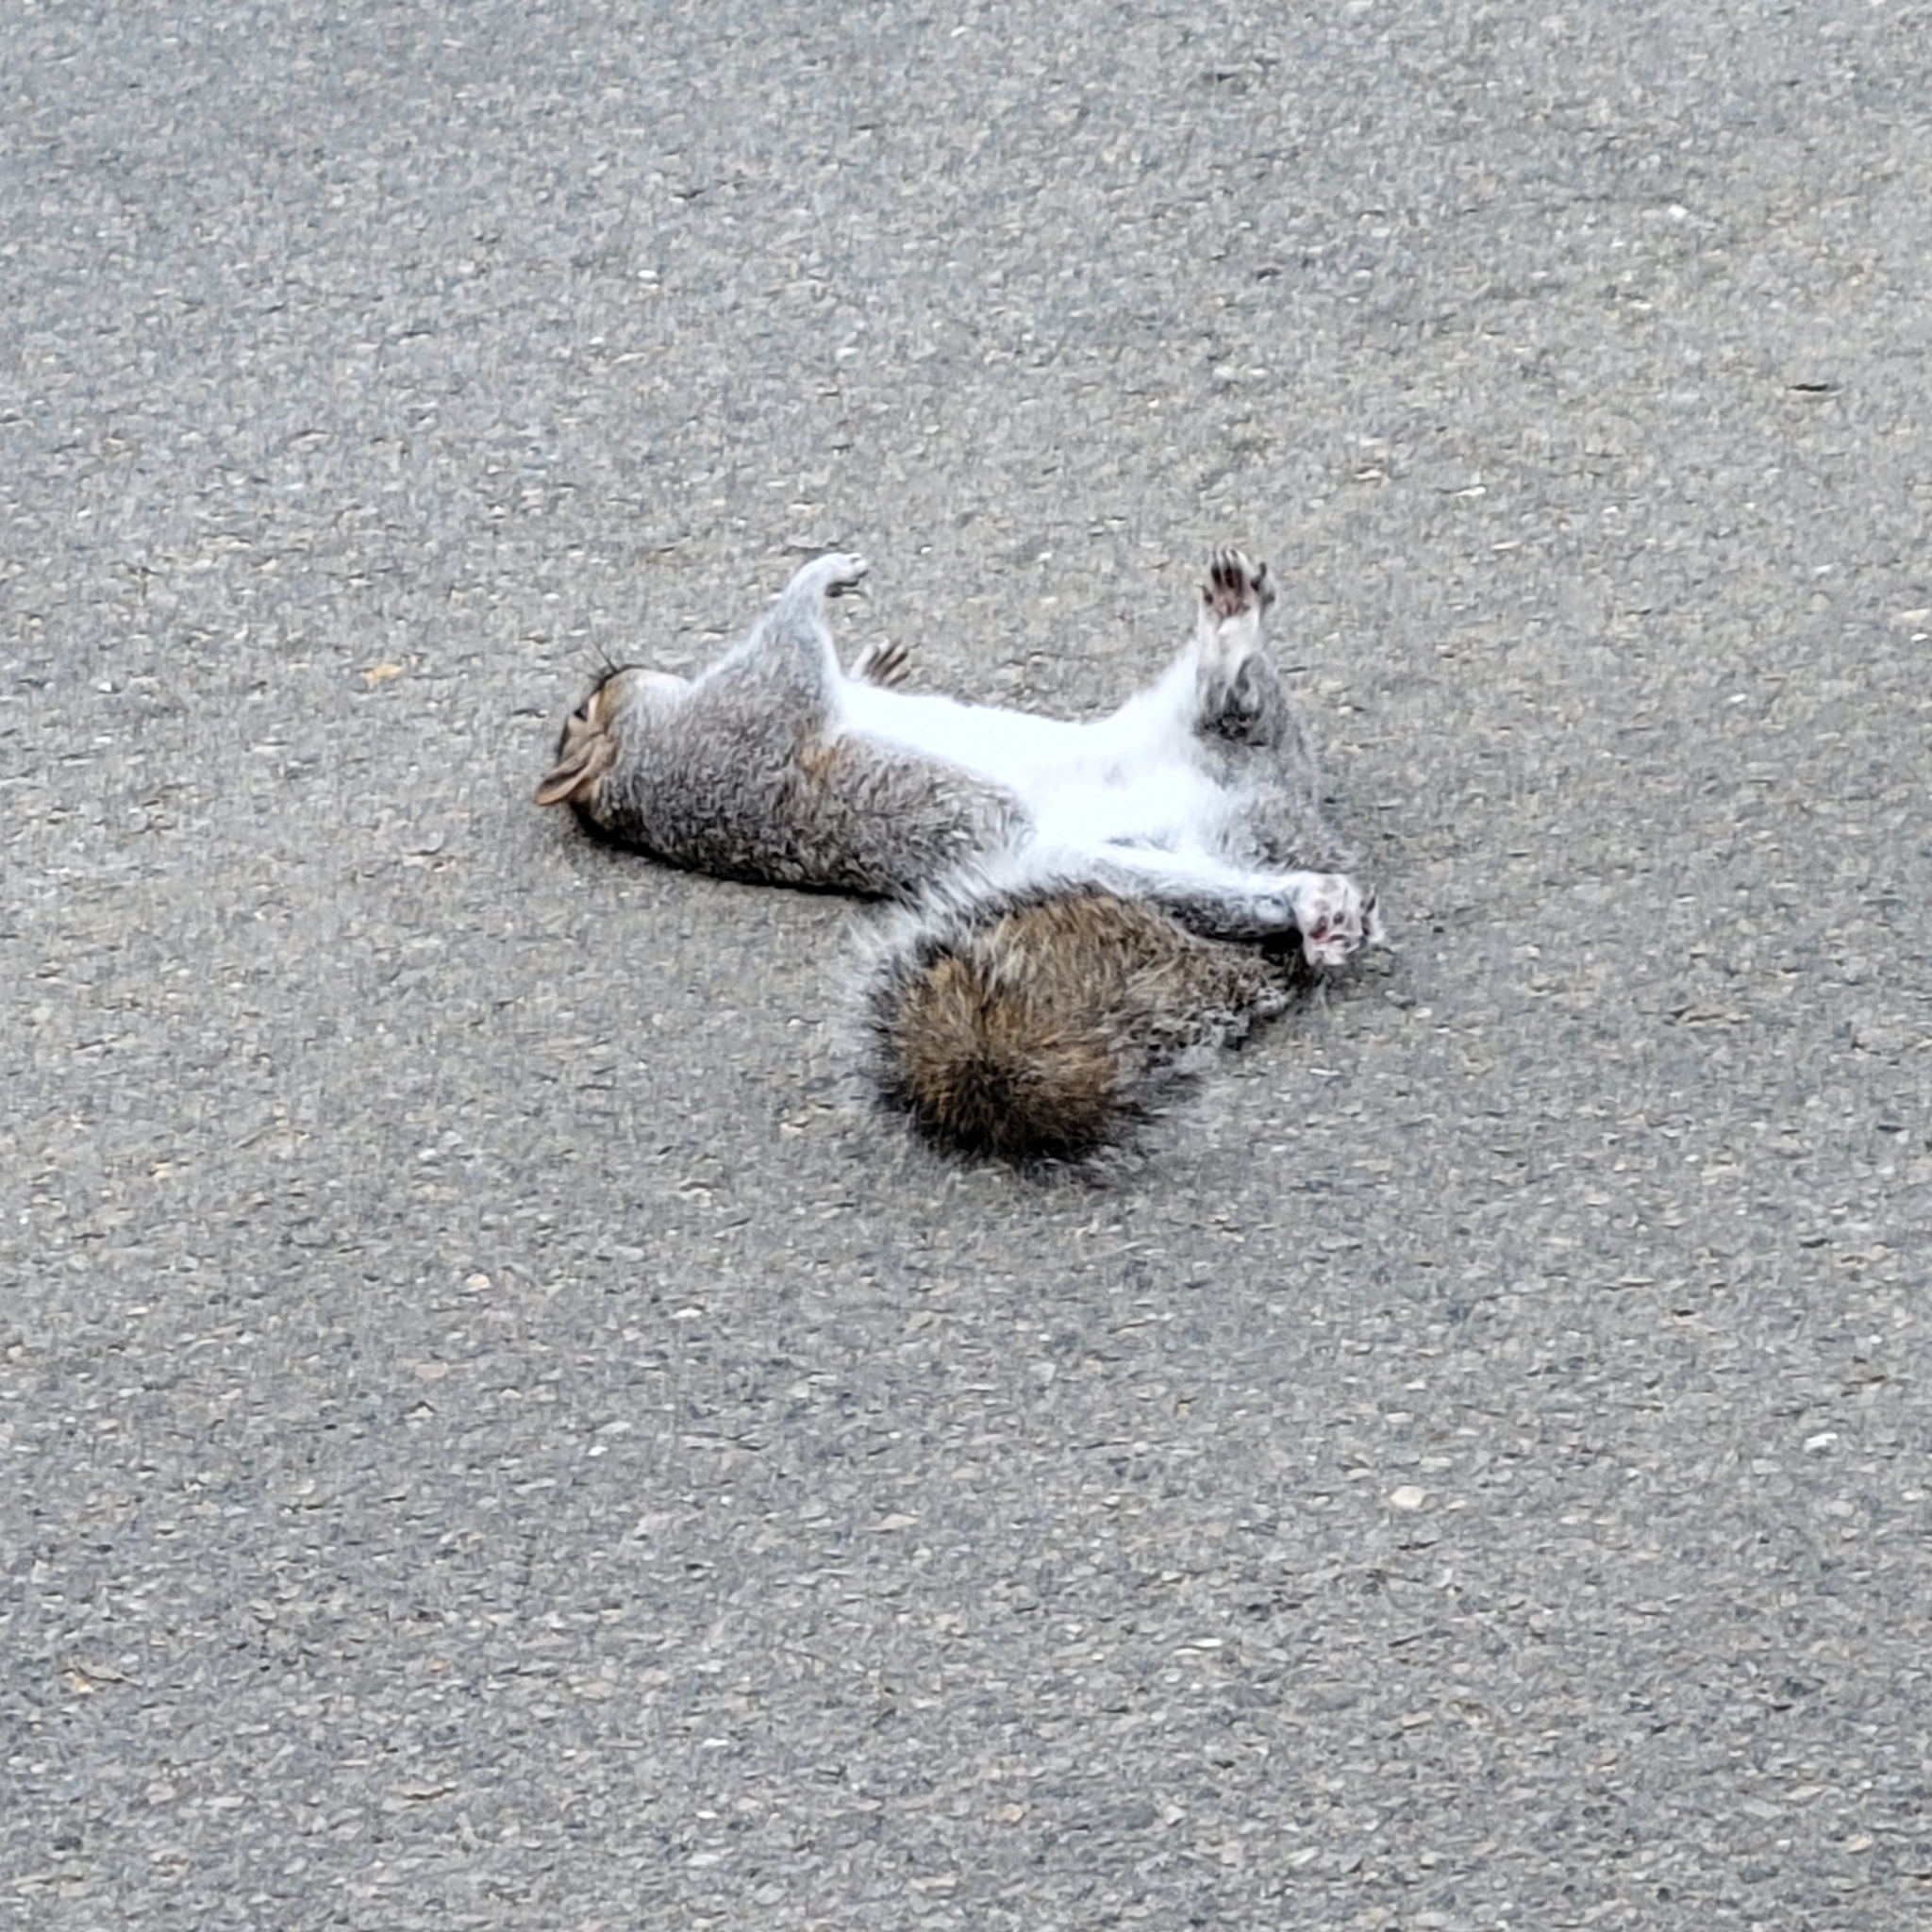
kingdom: Animalia
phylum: Chordata
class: Mammalia
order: Rodentia
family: Sciuridae
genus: Sciurus
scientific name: Sciurus carolinensis
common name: Eastern gray squirrel
